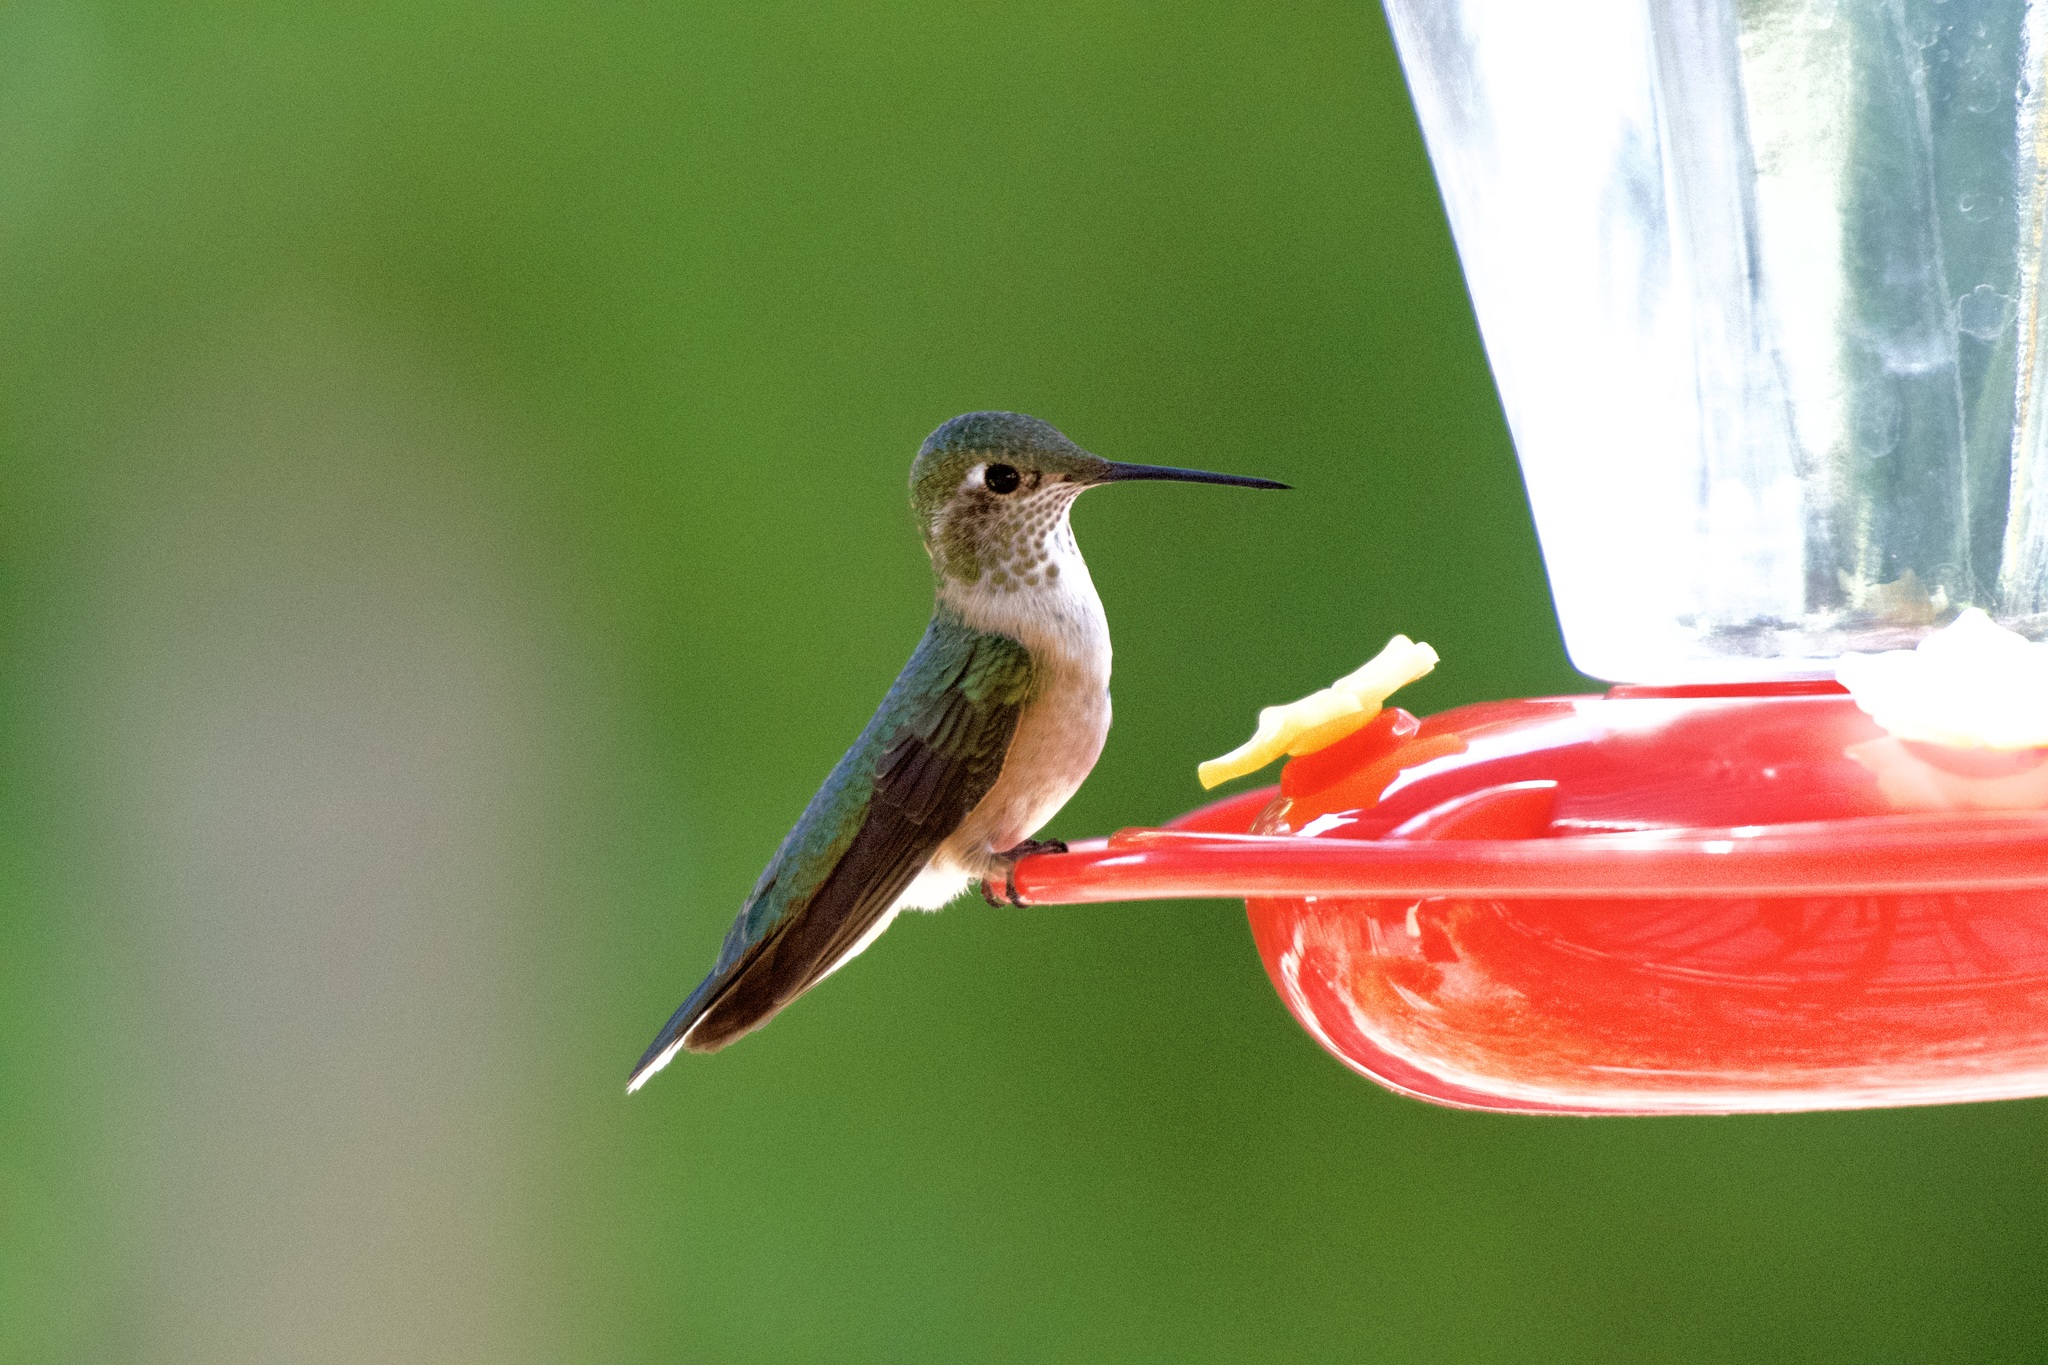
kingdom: Animalia
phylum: Chordata
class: Aves
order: Apodiformes
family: Trochilidae
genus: Selasphorus
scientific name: Selasphorus platycercus
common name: Broad-tailed hummingbird
